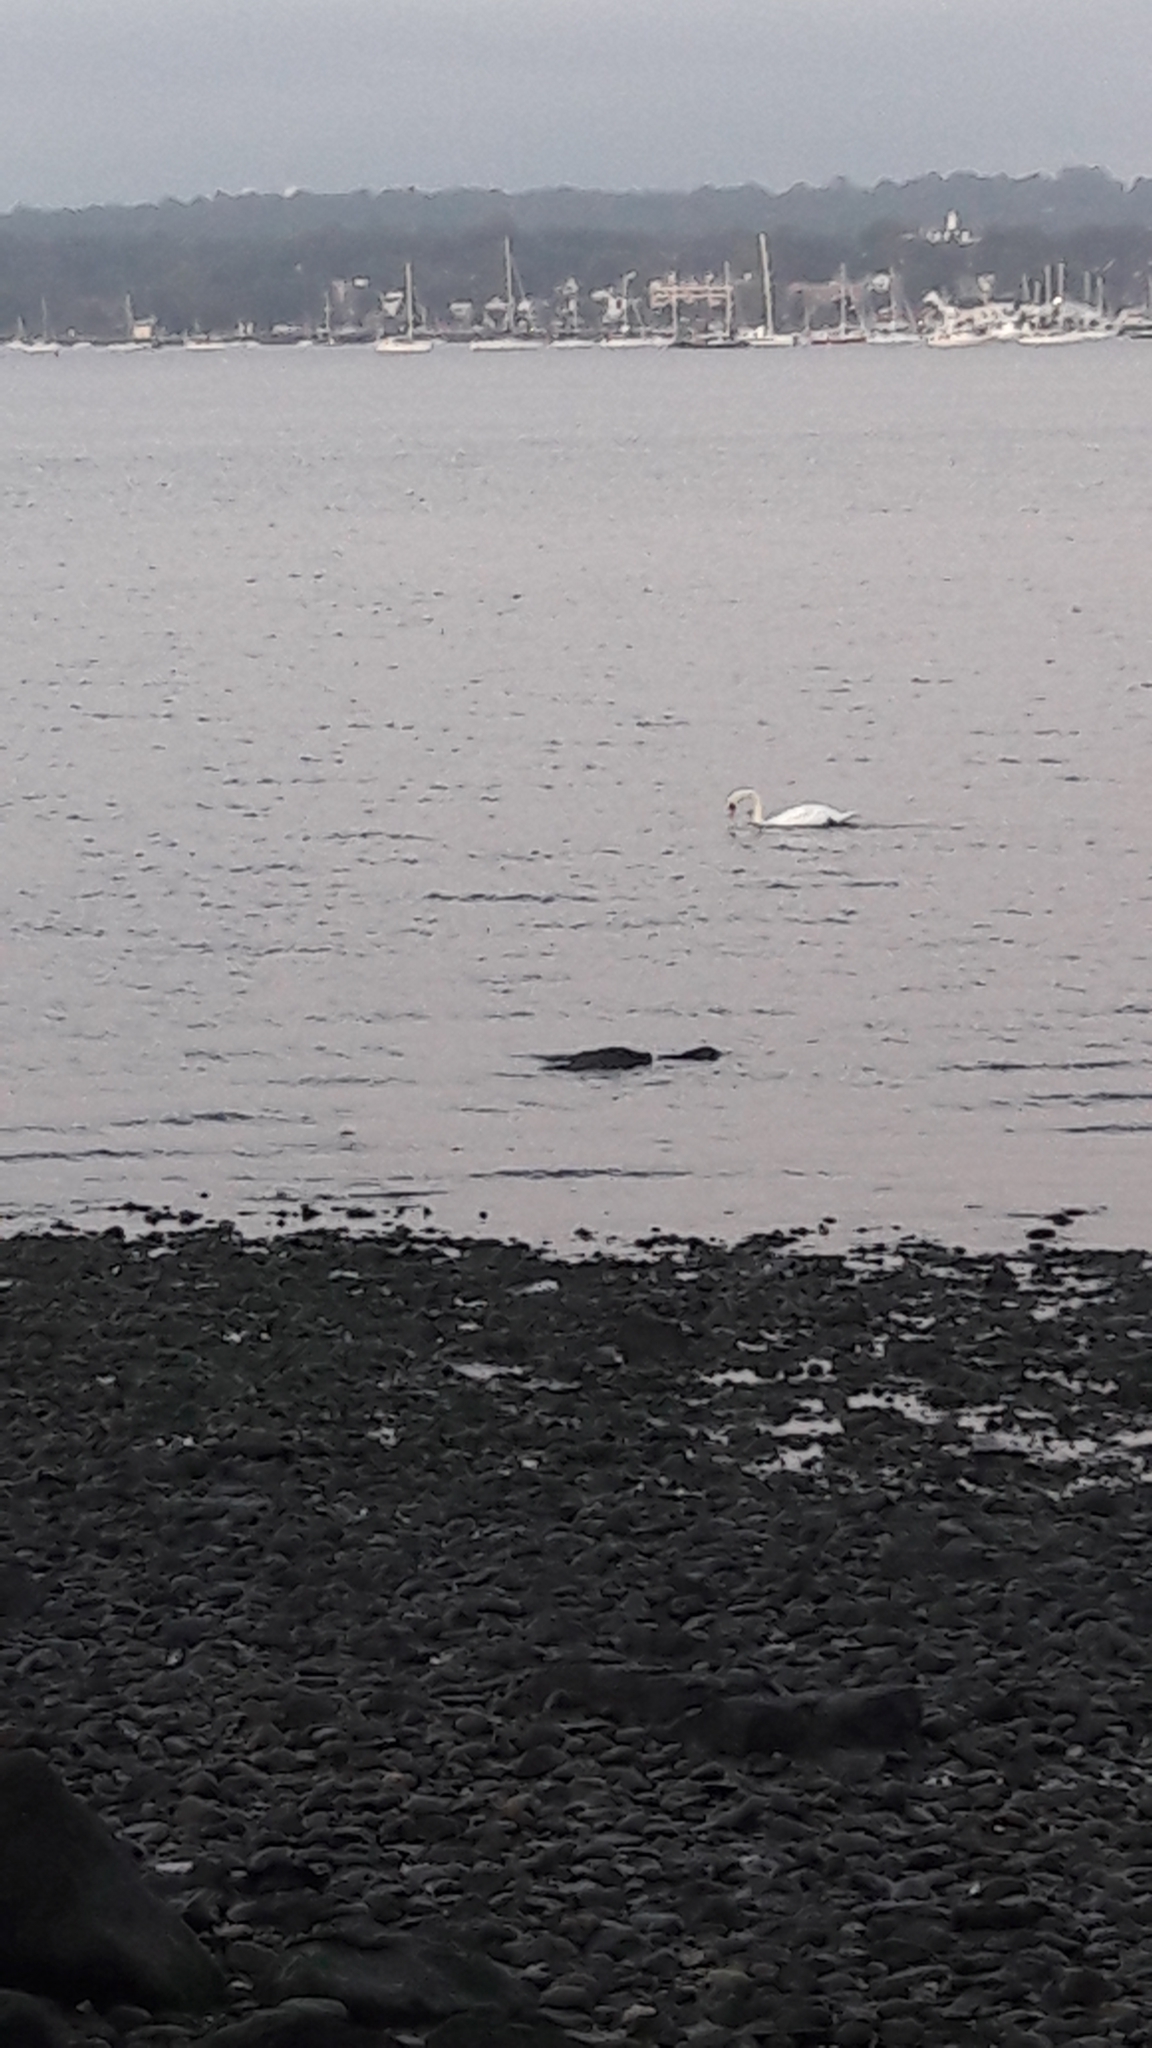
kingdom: Animalia
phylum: Chordata
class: Aves
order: Anseriformes
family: Anatidae
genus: Cygnus
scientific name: Cygnus olor
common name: Mute swan
